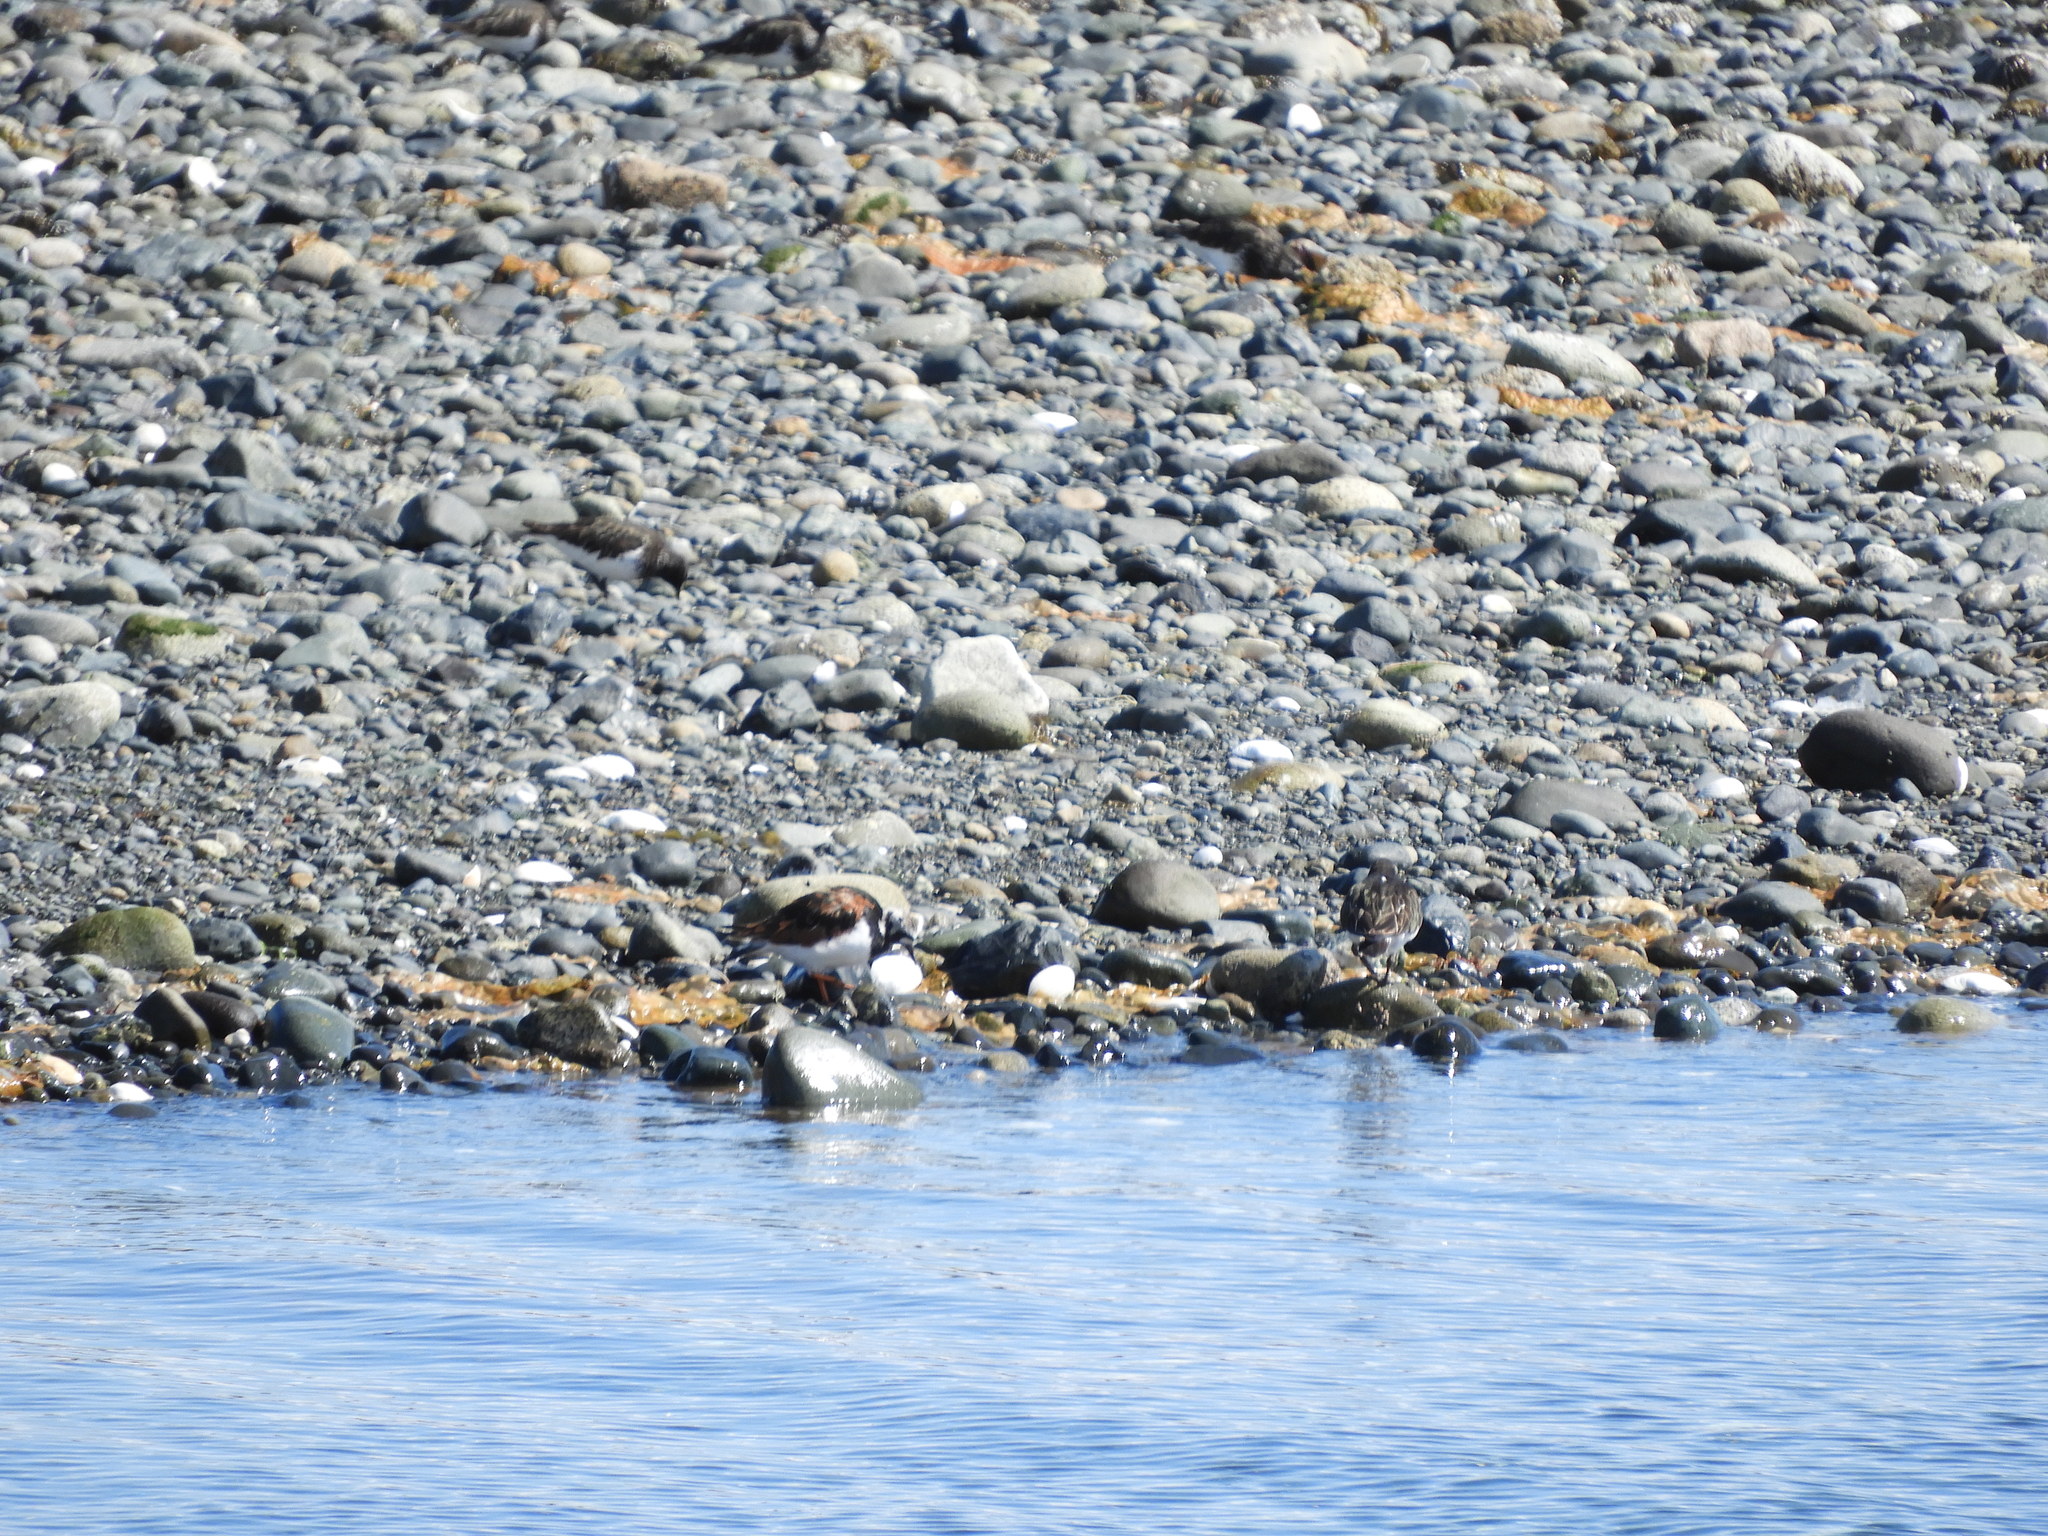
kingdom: Animalia
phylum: Chordata
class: Aves
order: Charadriiformes
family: Scolopacidae
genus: Arenaria
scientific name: Arenaria interpres
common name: Ruddy turnstone
